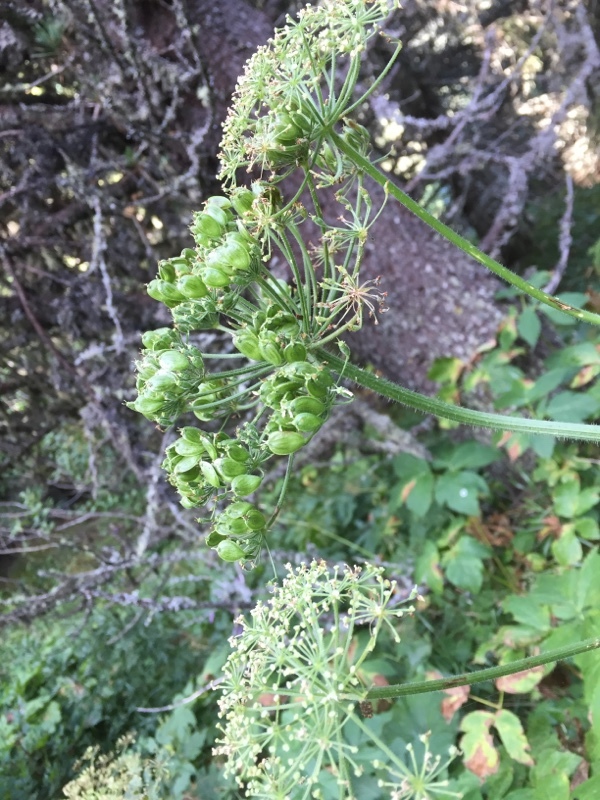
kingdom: Plantae
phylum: Tracheophyta
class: Magnoliopsida
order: Apiales
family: Apiaceae
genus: Imperatoria
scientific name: Imperatoria ostruthium
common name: Masterwort
